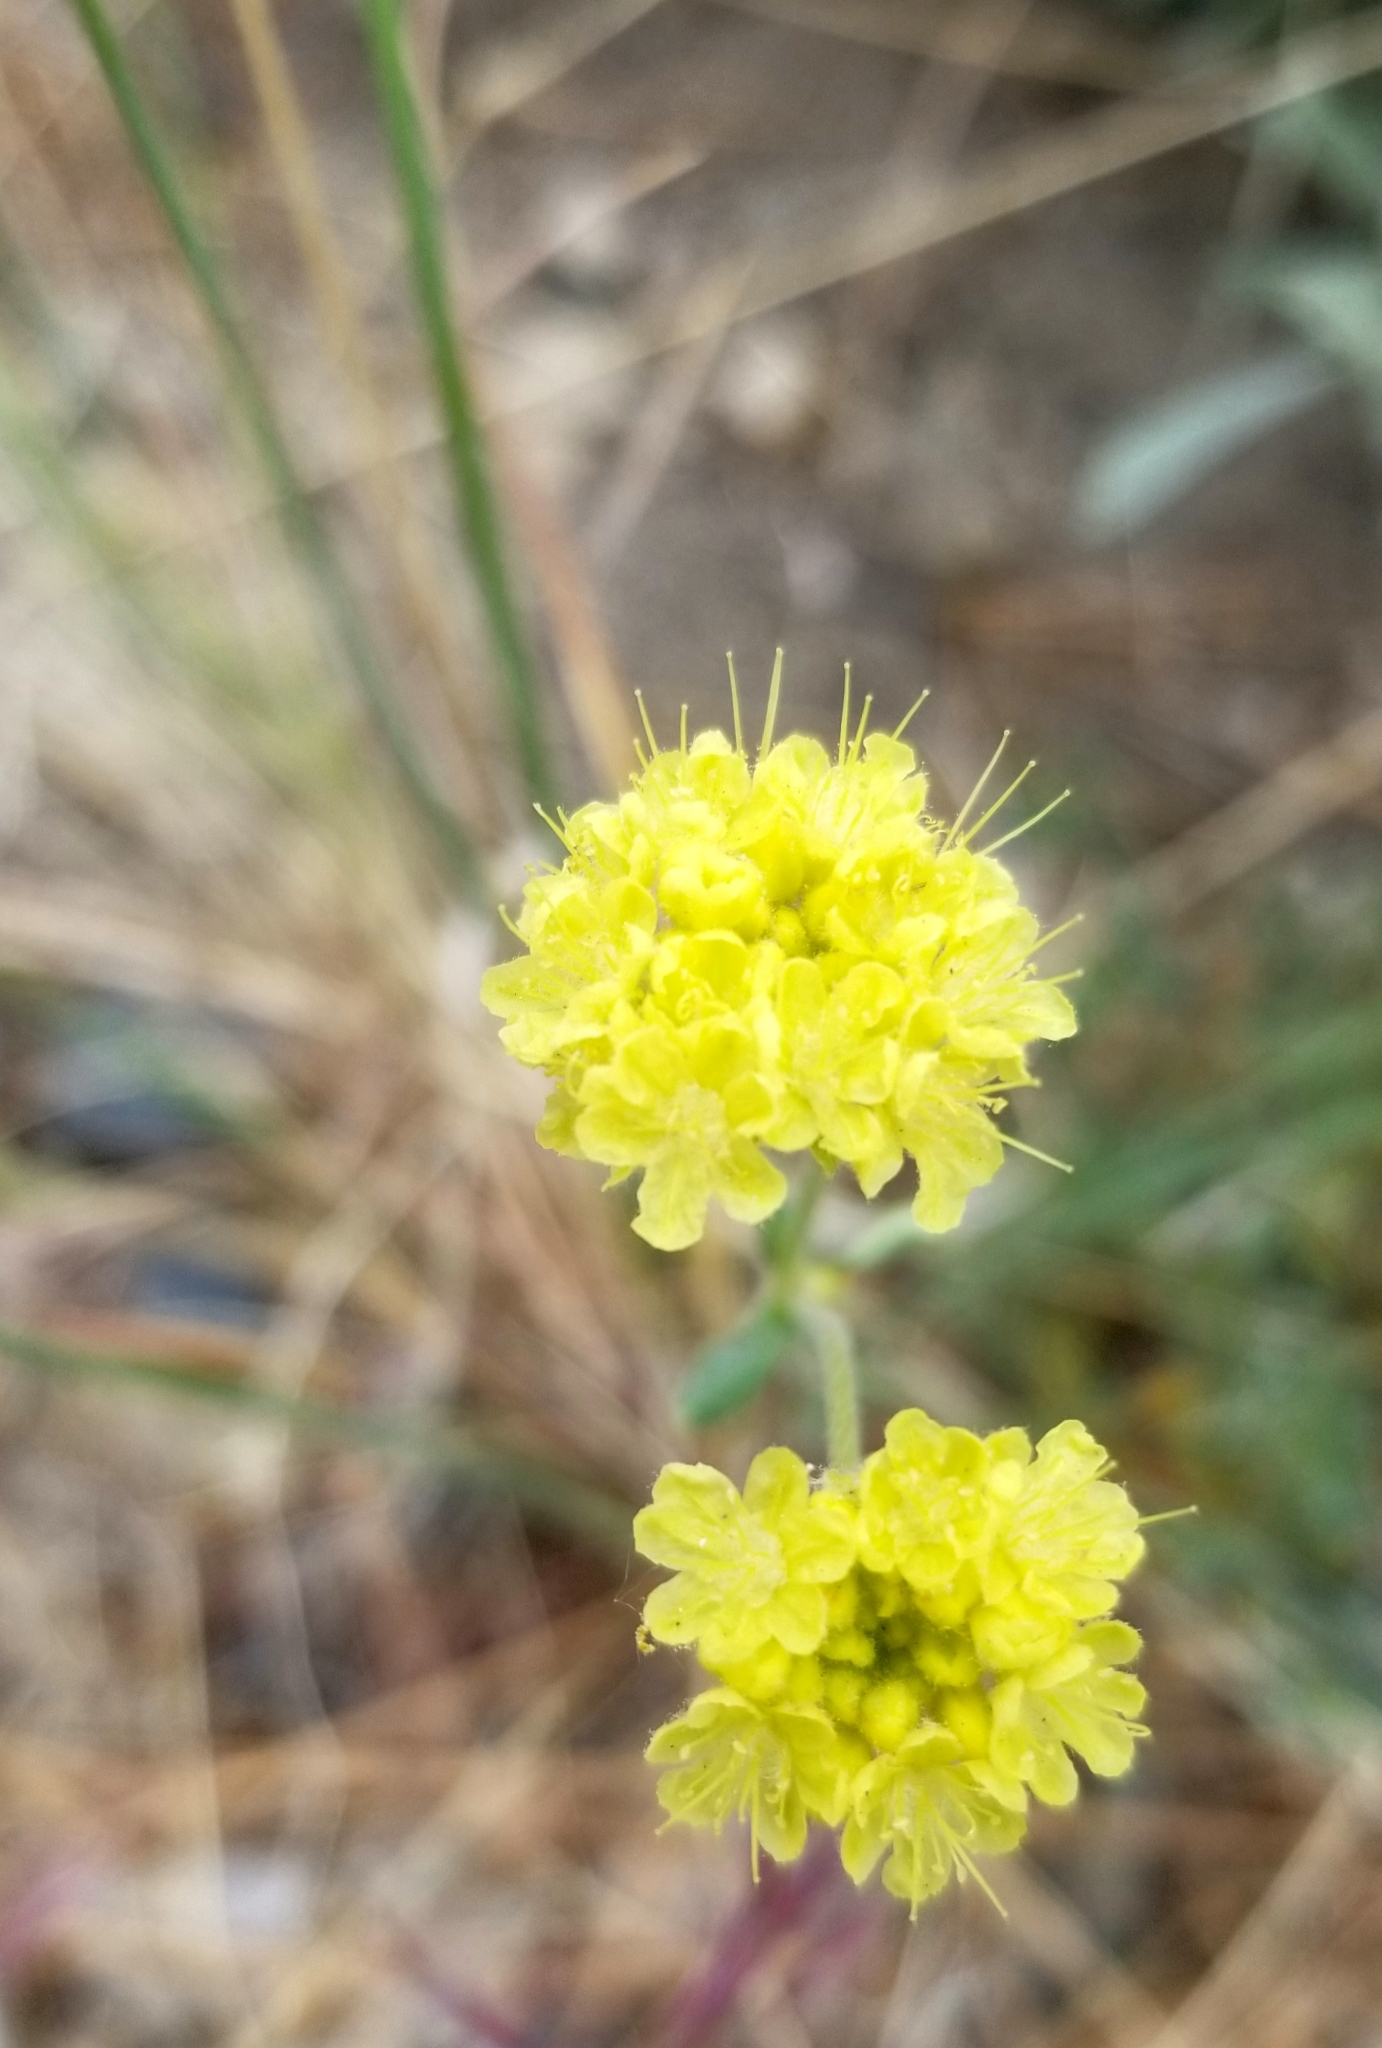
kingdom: Plantae
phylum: Tracheophyta
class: Magnoliopsida
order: Caryophyllales
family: Polygonaceae
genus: Eriogonum
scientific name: Eriogonum umbellatum
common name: Sulfur-buckwheat
